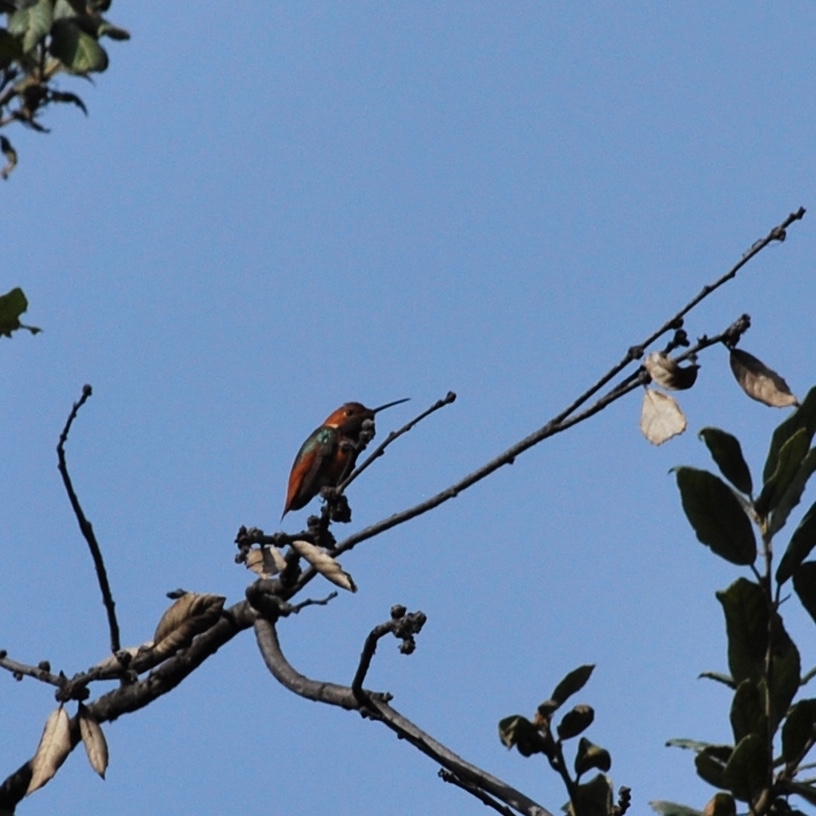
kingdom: Animalia
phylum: Chordata
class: Aves
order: Apodiformes
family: Trochilidae
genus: Selasphorus
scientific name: Selasphorus sasin
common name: Allen's hummingbird
